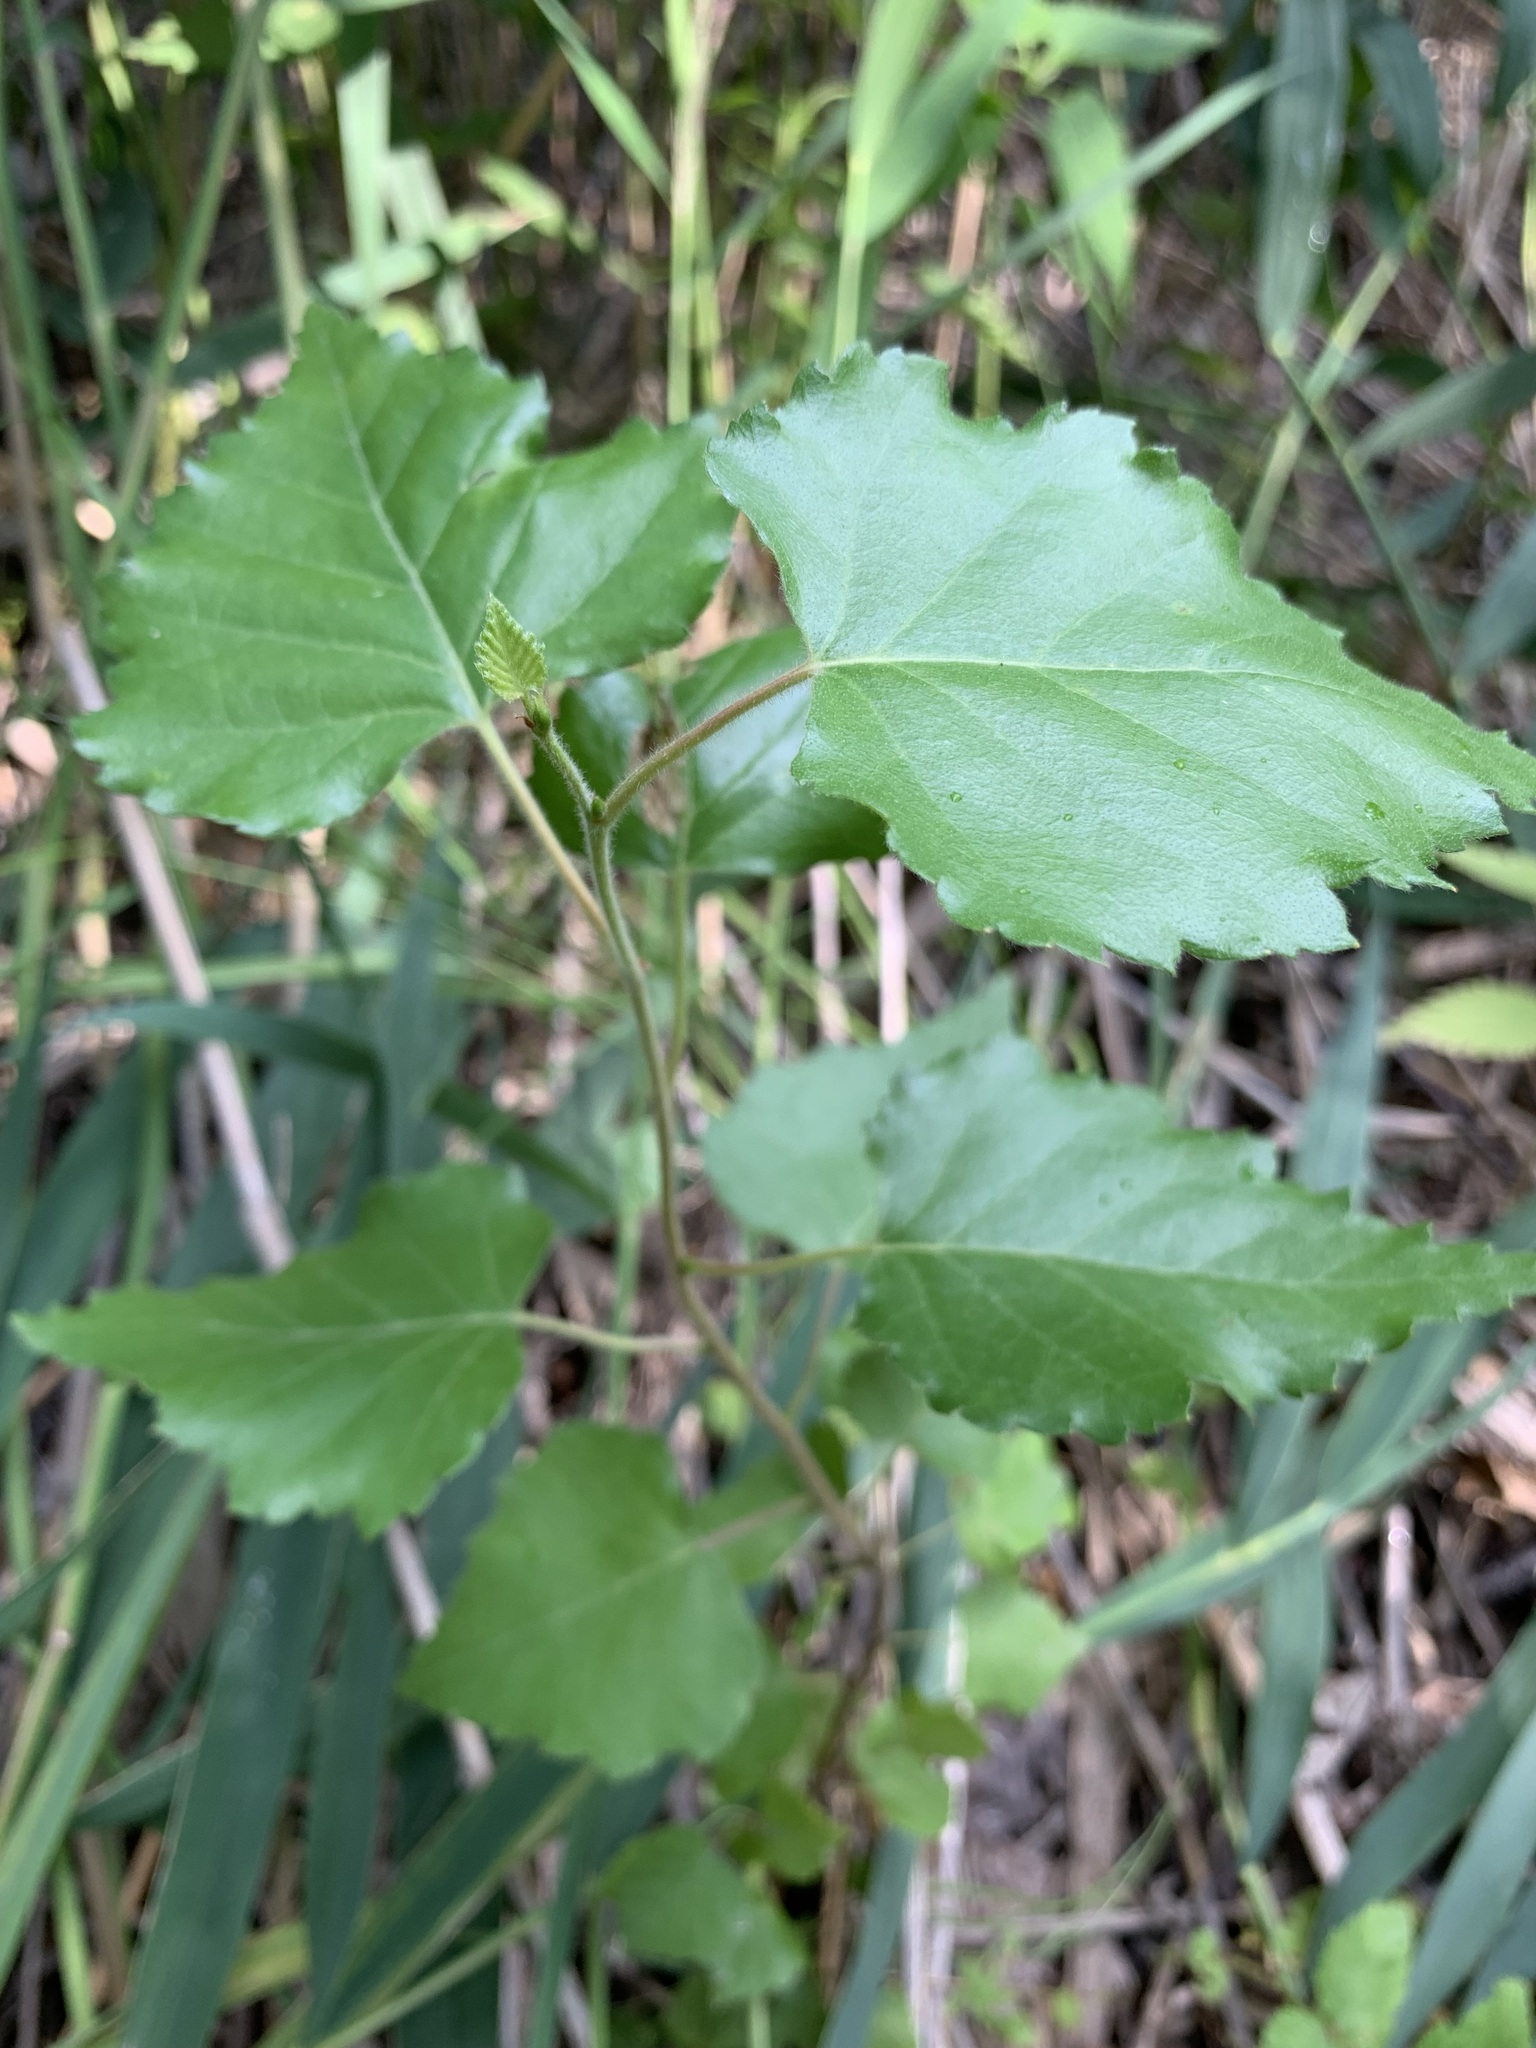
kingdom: Plantae
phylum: Tracheophyta
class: Magnoliopsida
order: Fagales
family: Betulaceae
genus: Betula
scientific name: Betula pubescens
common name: Downy birch
